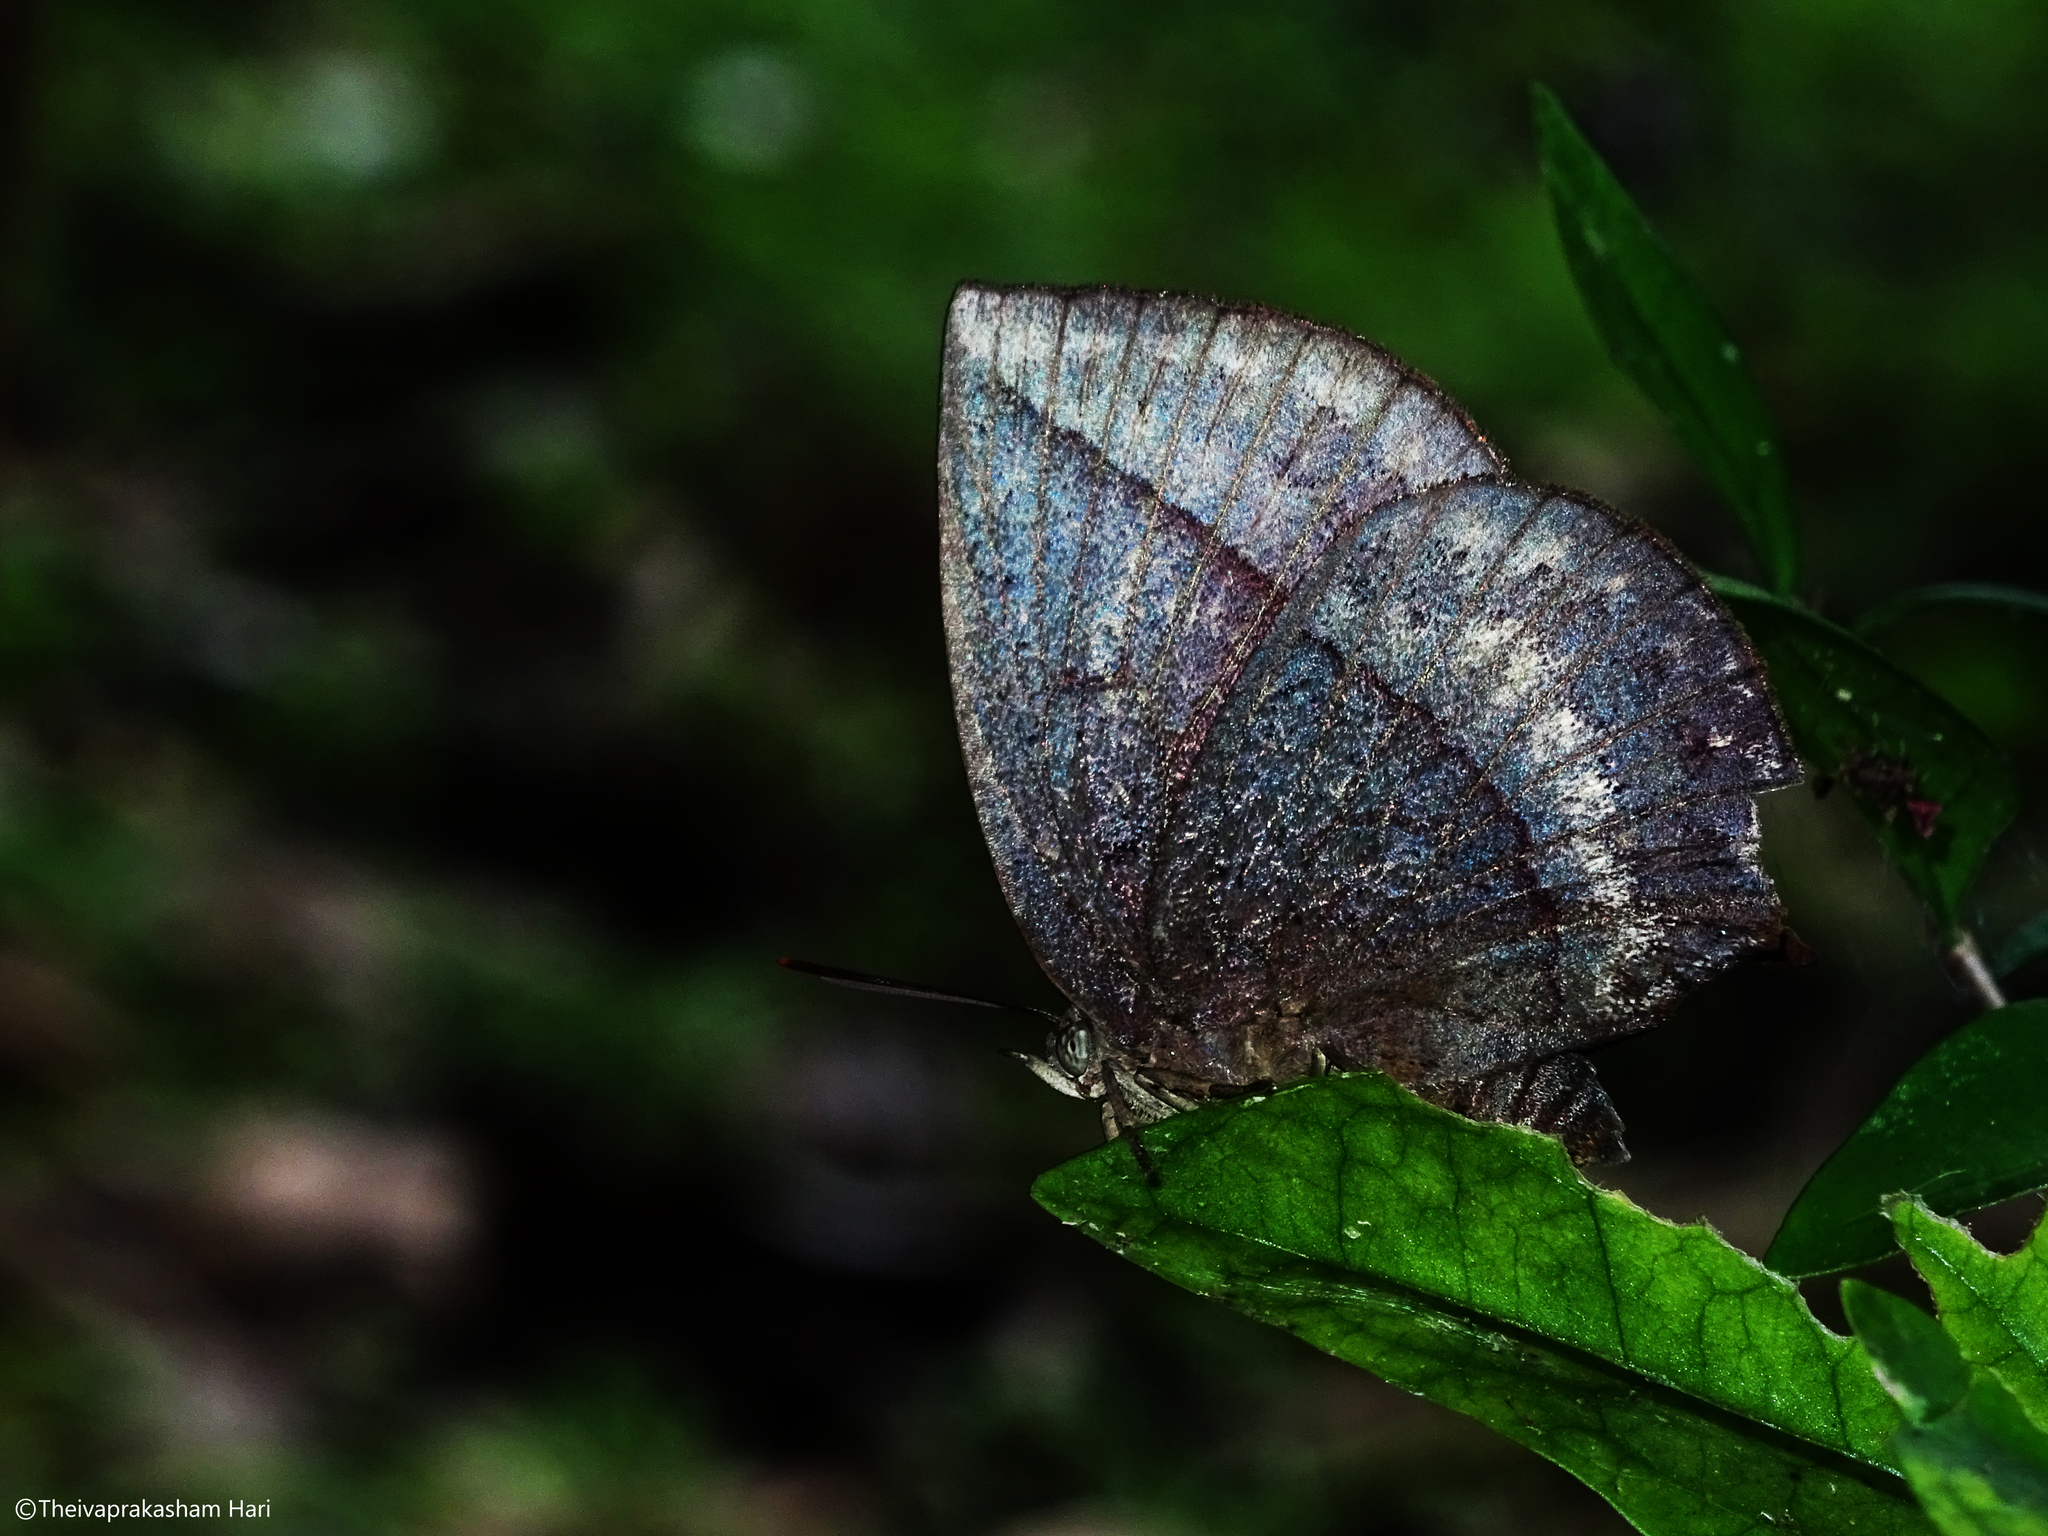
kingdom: Animalia
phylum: Arthropoda
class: Insecta
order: Lepidoptera
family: Lycaenidae
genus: Amblypodia
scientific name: Amblypodia anita
